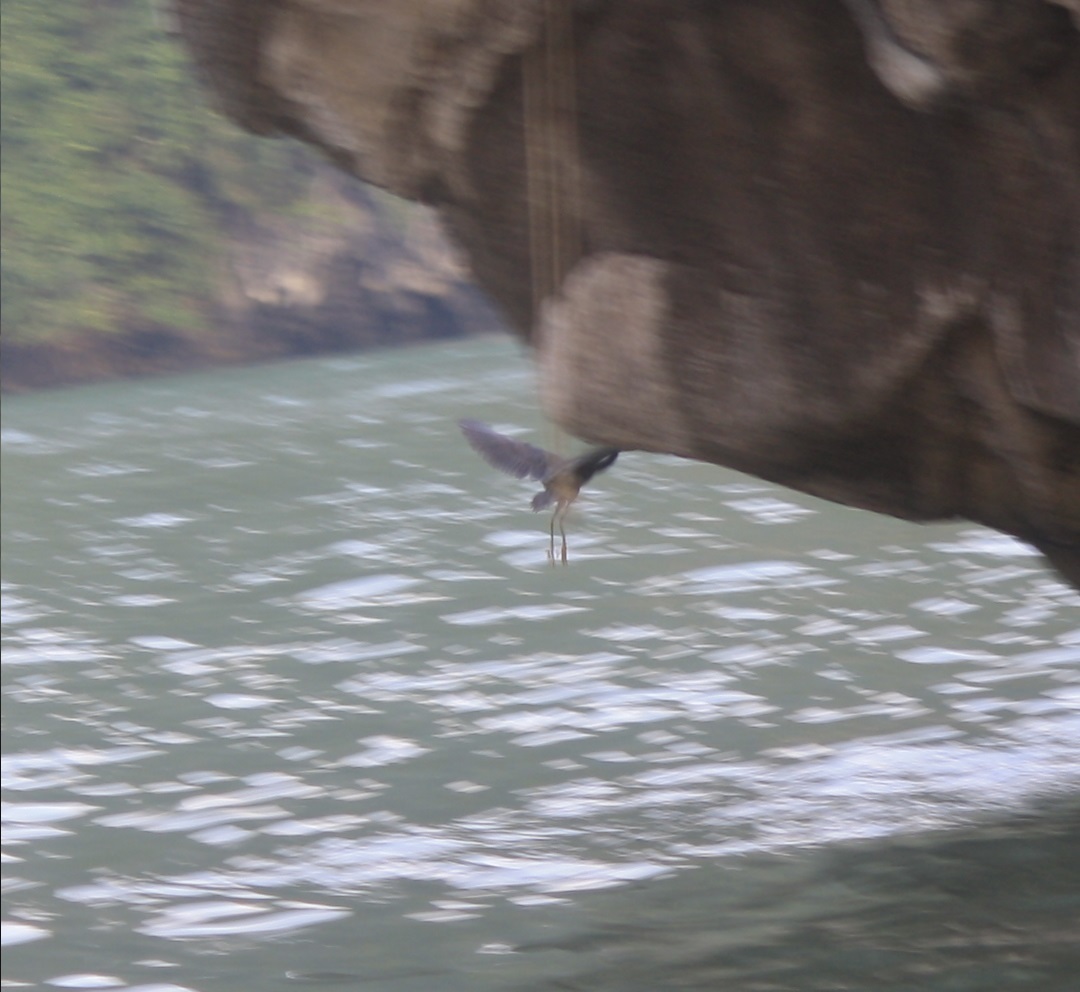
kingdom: Animalia
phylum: Chordata
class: Aves
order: Pelecaniformes
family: Ardeidae
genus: Egretta
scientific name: Egretta sacra
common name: Pacific reef heron
